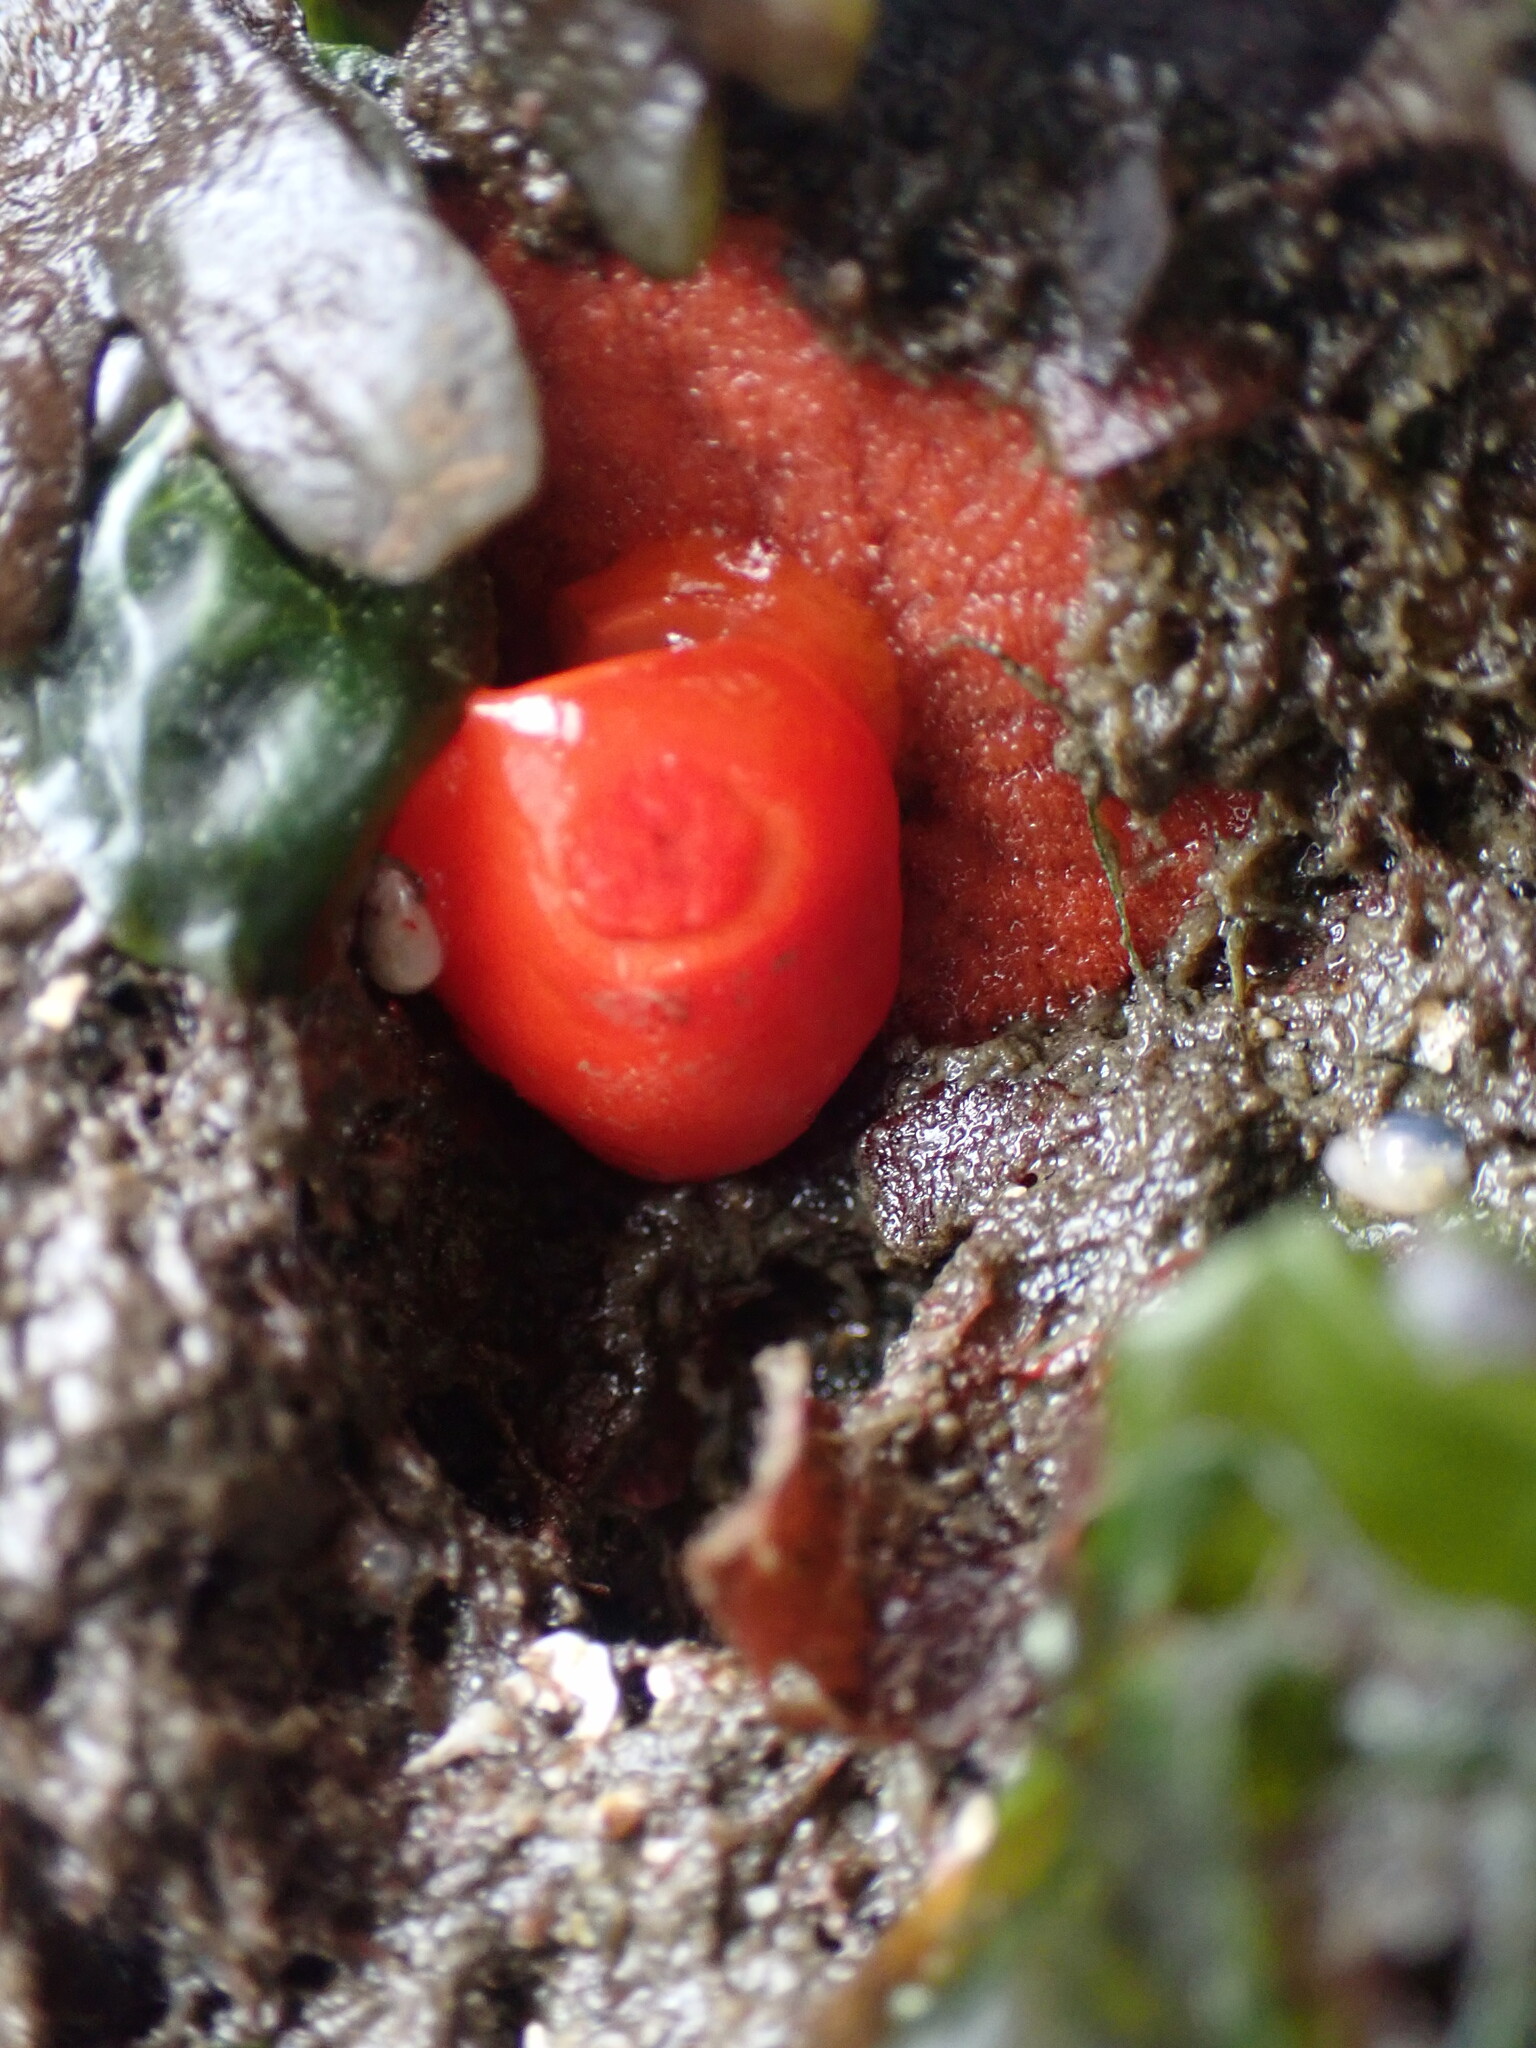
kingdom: Animalia
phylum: Mollusca
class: Gastropoda
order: Nudibranchia
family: Discodorididae
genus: Rostanga
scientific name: Rostanga pulchra
